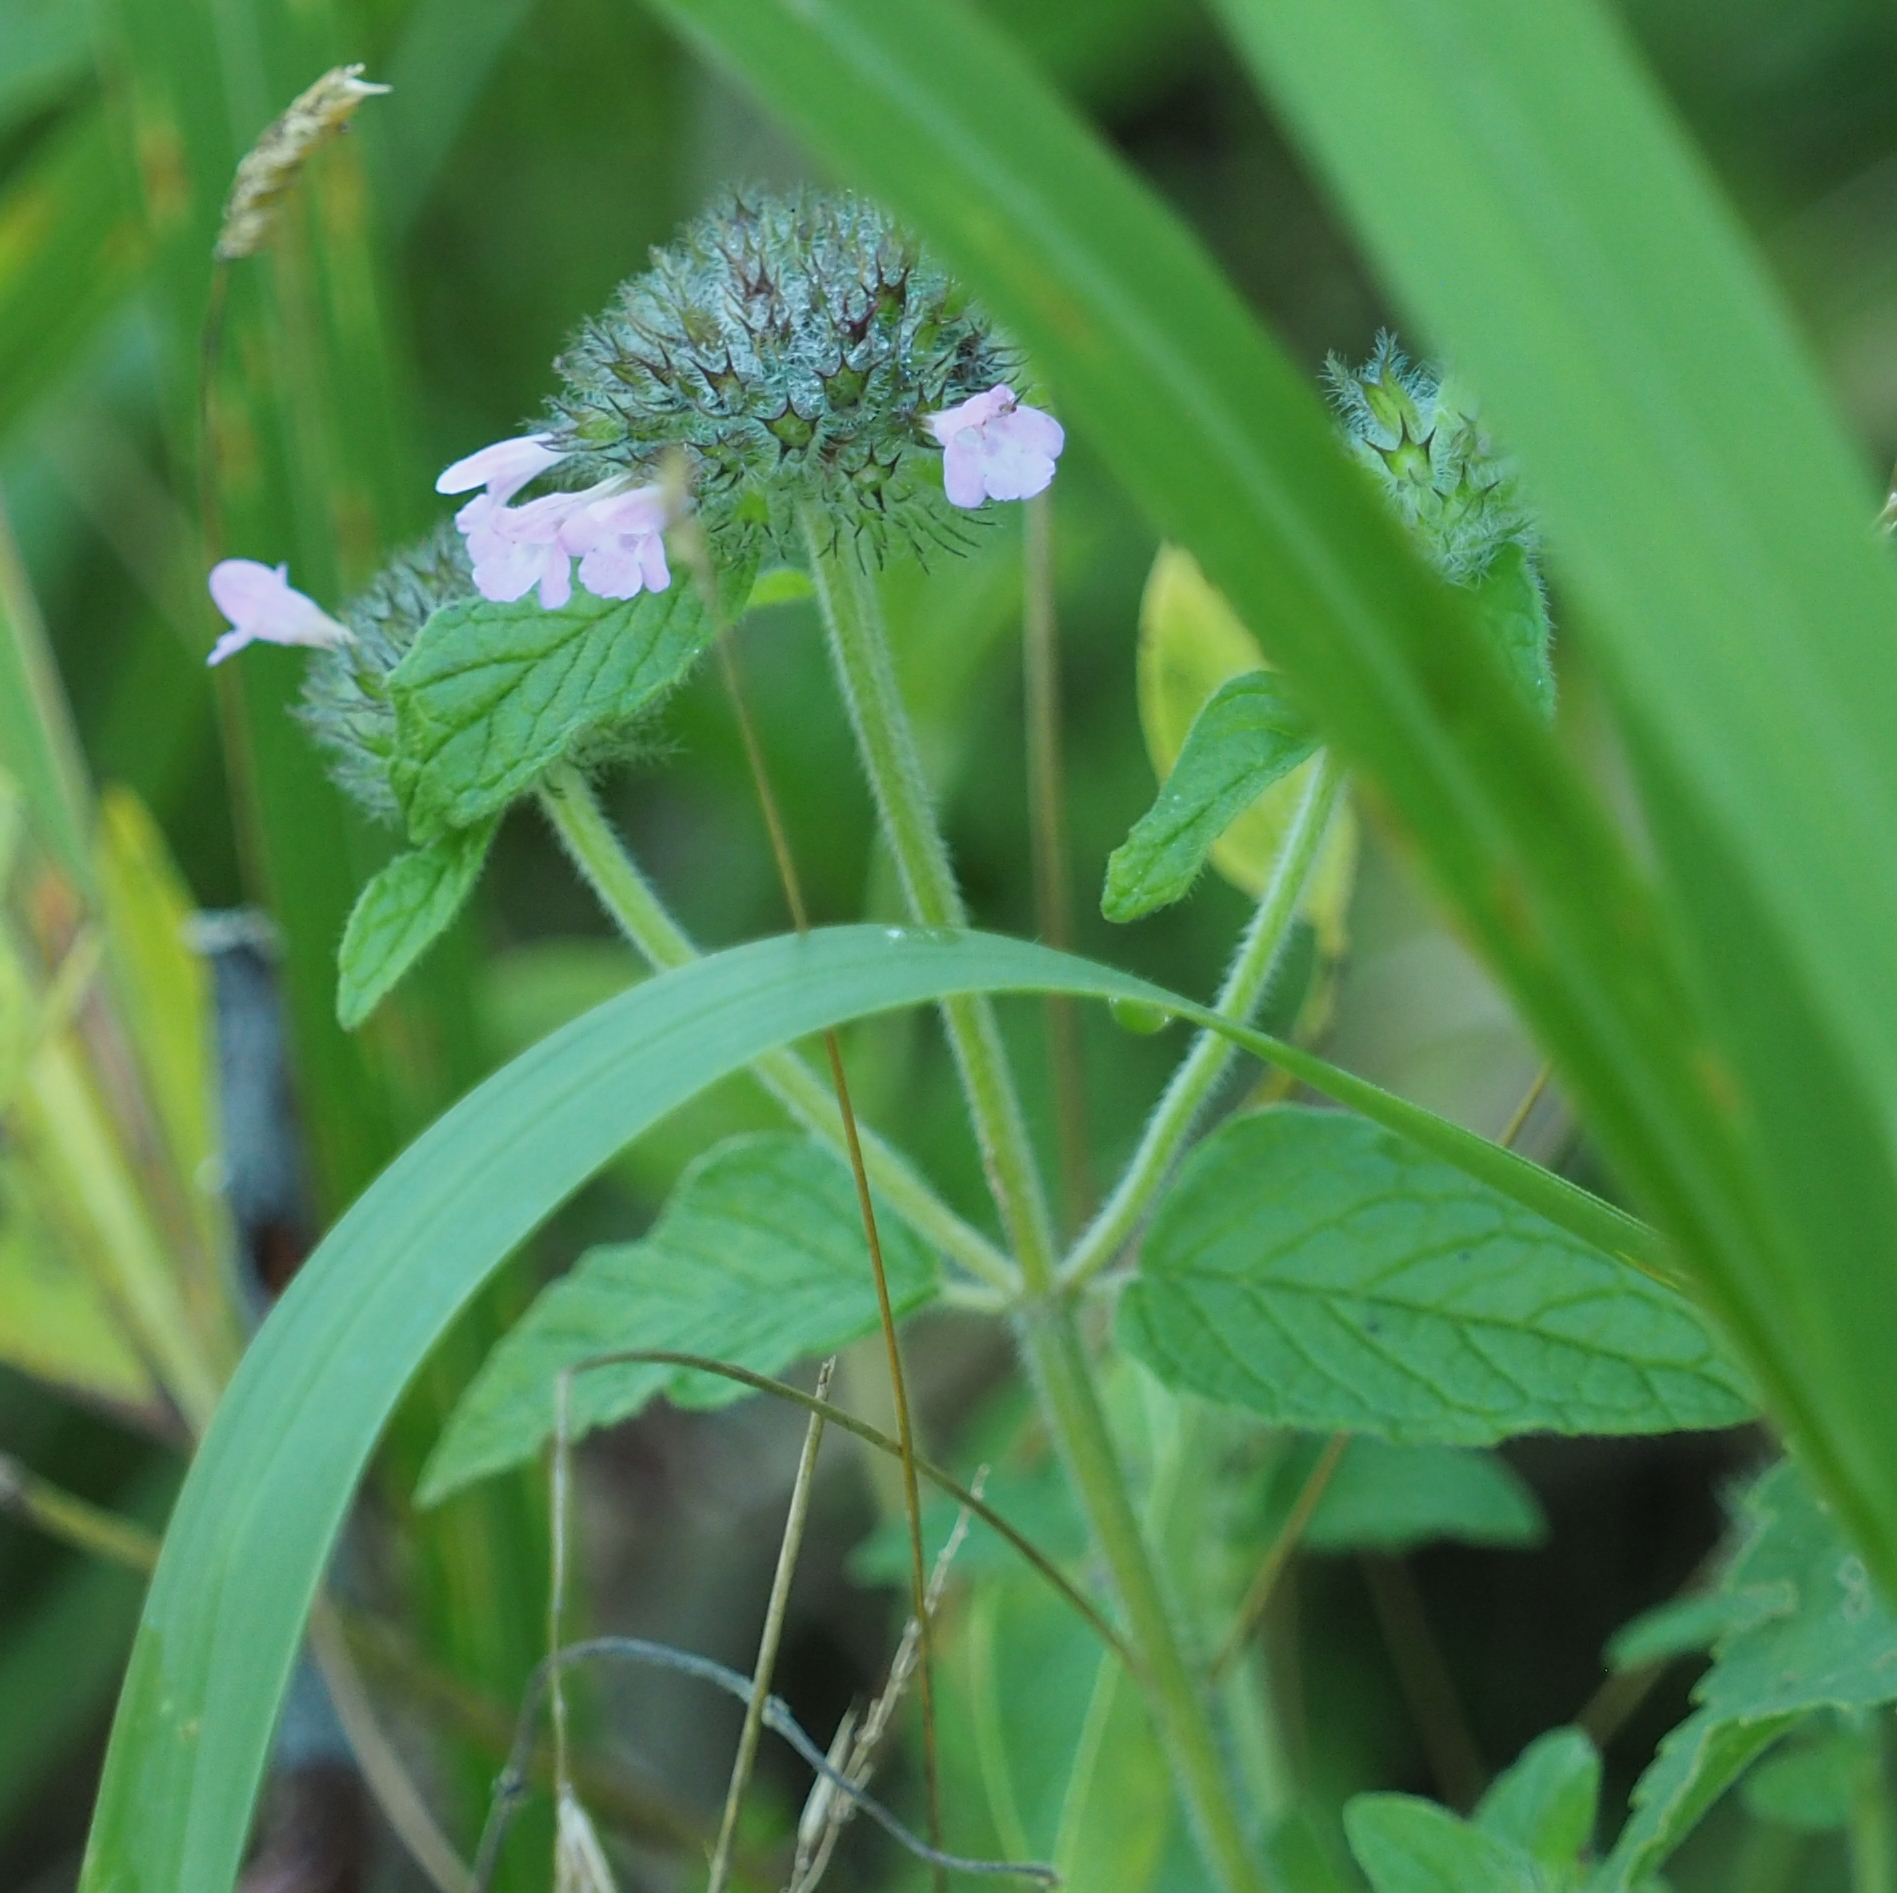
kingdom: Plantae
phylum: Tracheophyta
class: Magnoliopsida
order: Lamiales
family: Lamiaceae
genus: Clinopodium
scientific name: Clinopodium vulgare
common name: Wild basil
